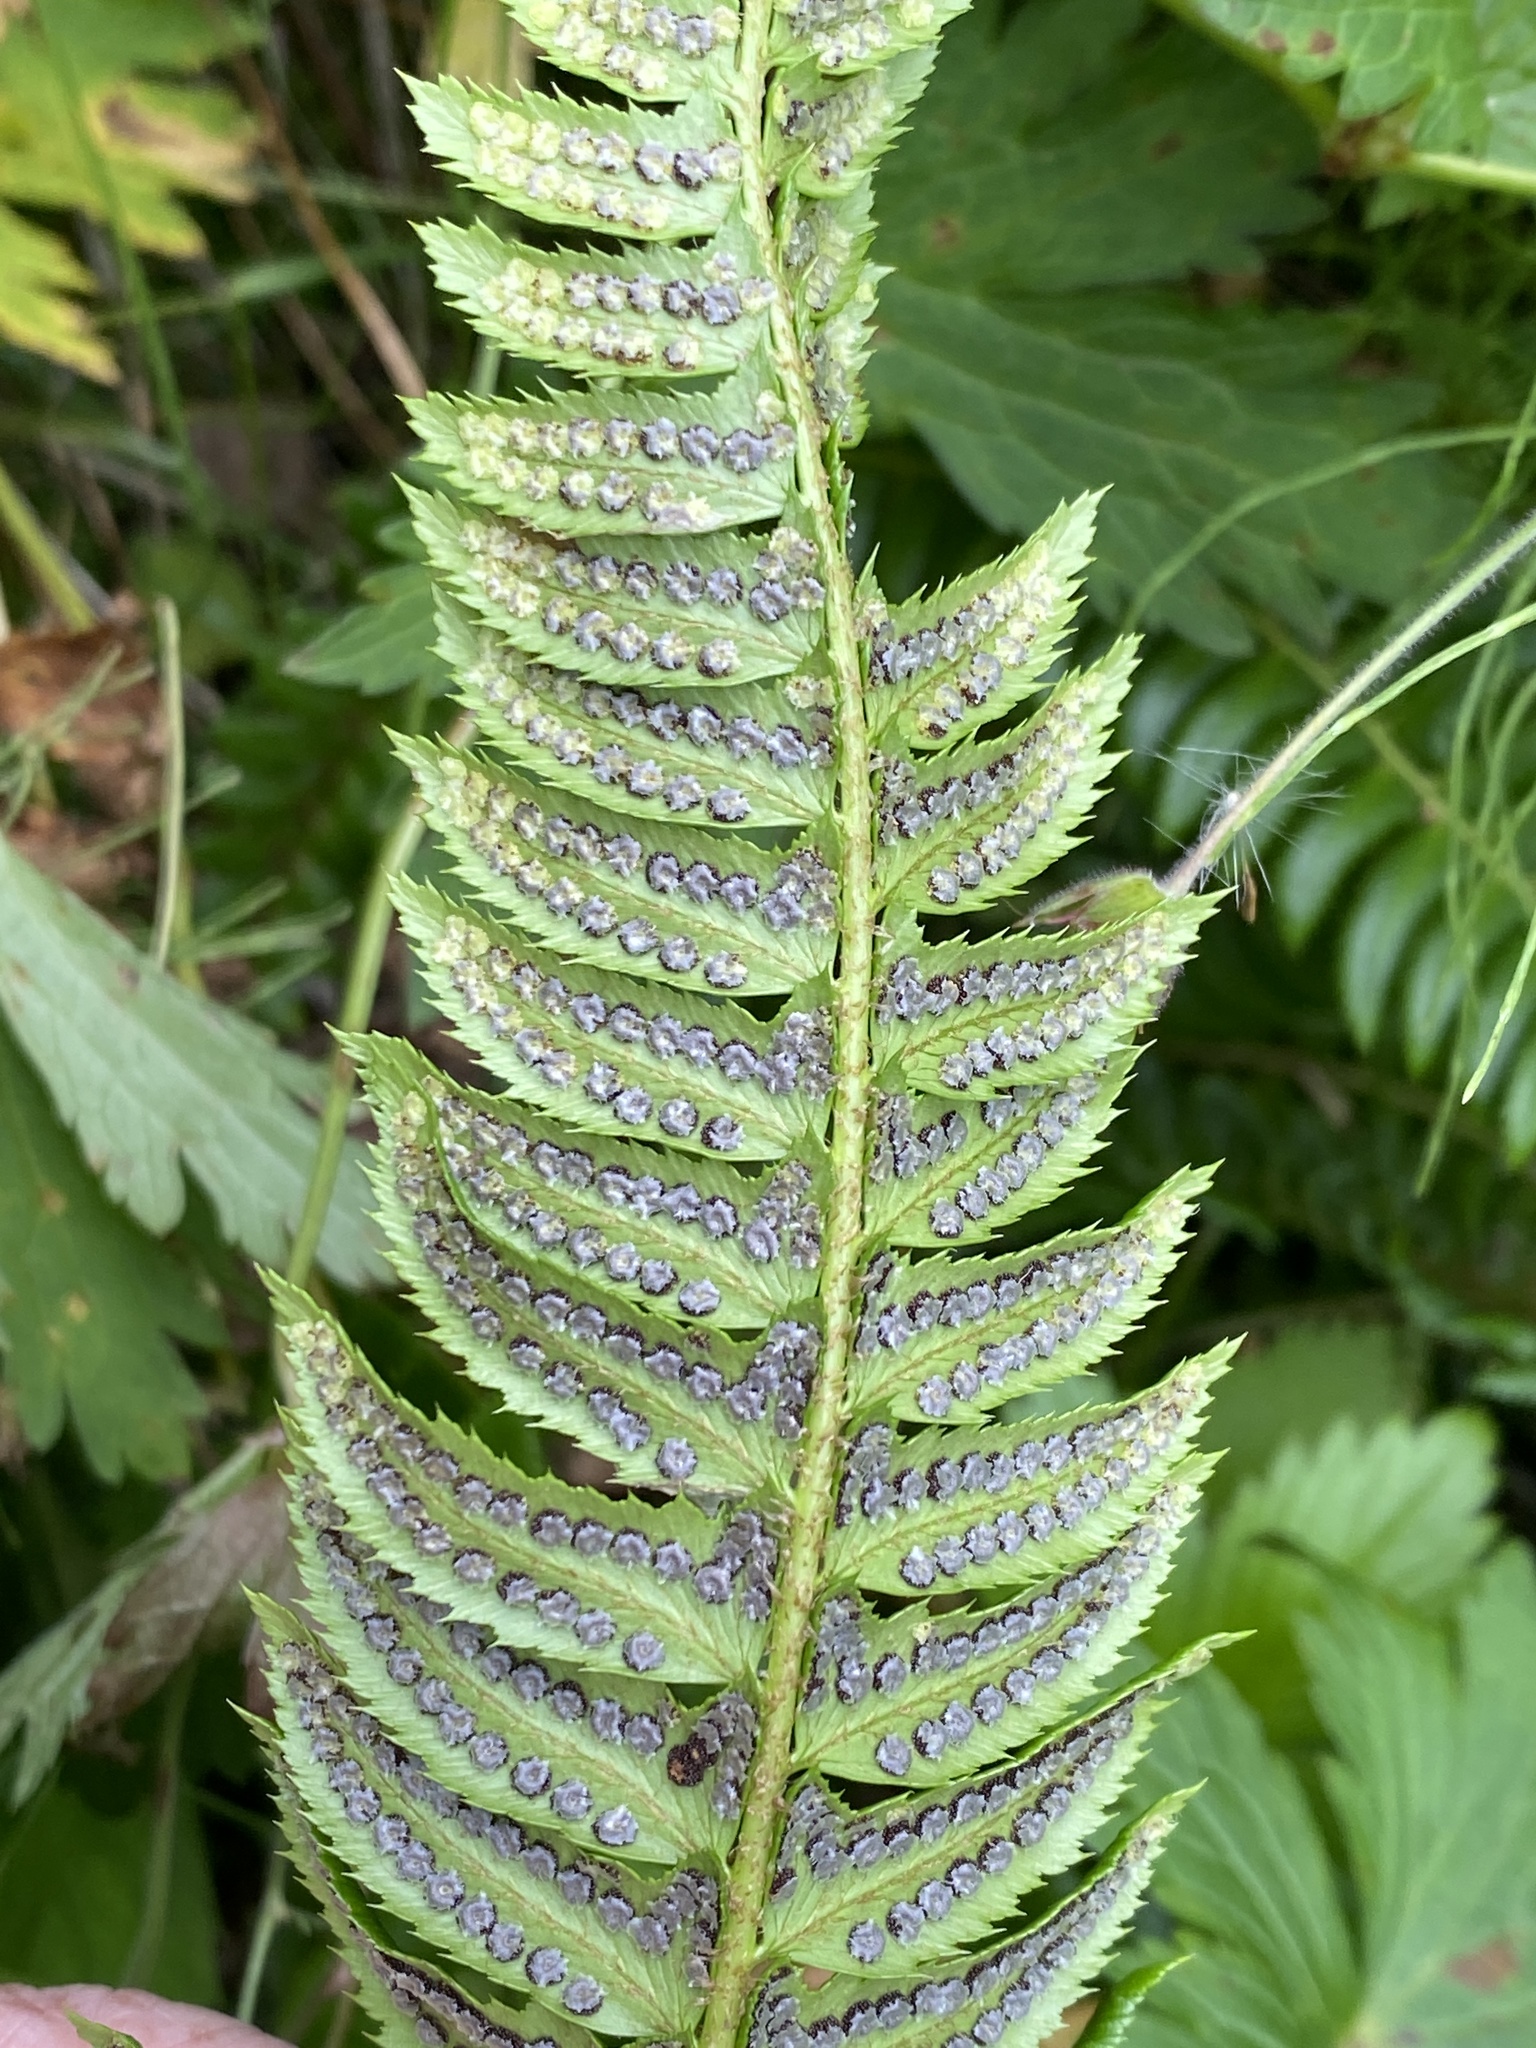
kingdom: Plantae
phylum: Tracheophyta
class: Polypodiopsida
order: Polypodiales
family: Dryopteridaceae
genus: Polystichum
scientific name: Polystichum lonchitis
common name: Holly fern
